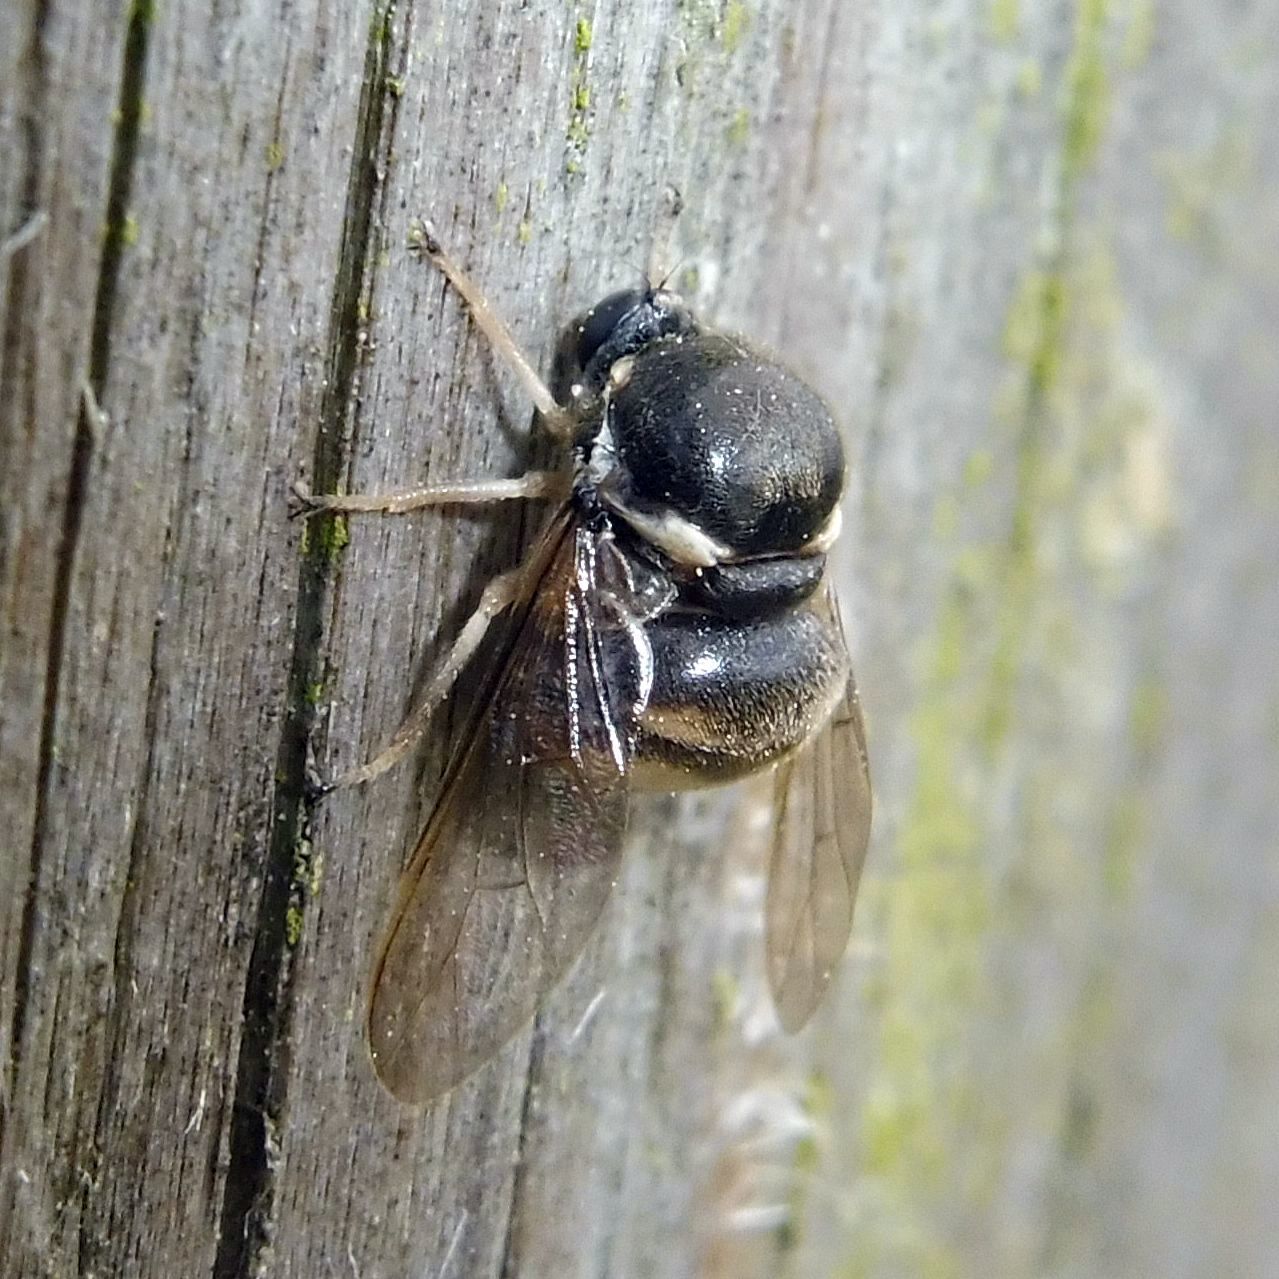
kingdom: Animalia
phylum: Arthropoda
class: Insecta
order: Diptera
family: Acroceridae
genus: Acrocera
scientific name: Acrocera orbicula
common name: Top-horned hunchback
